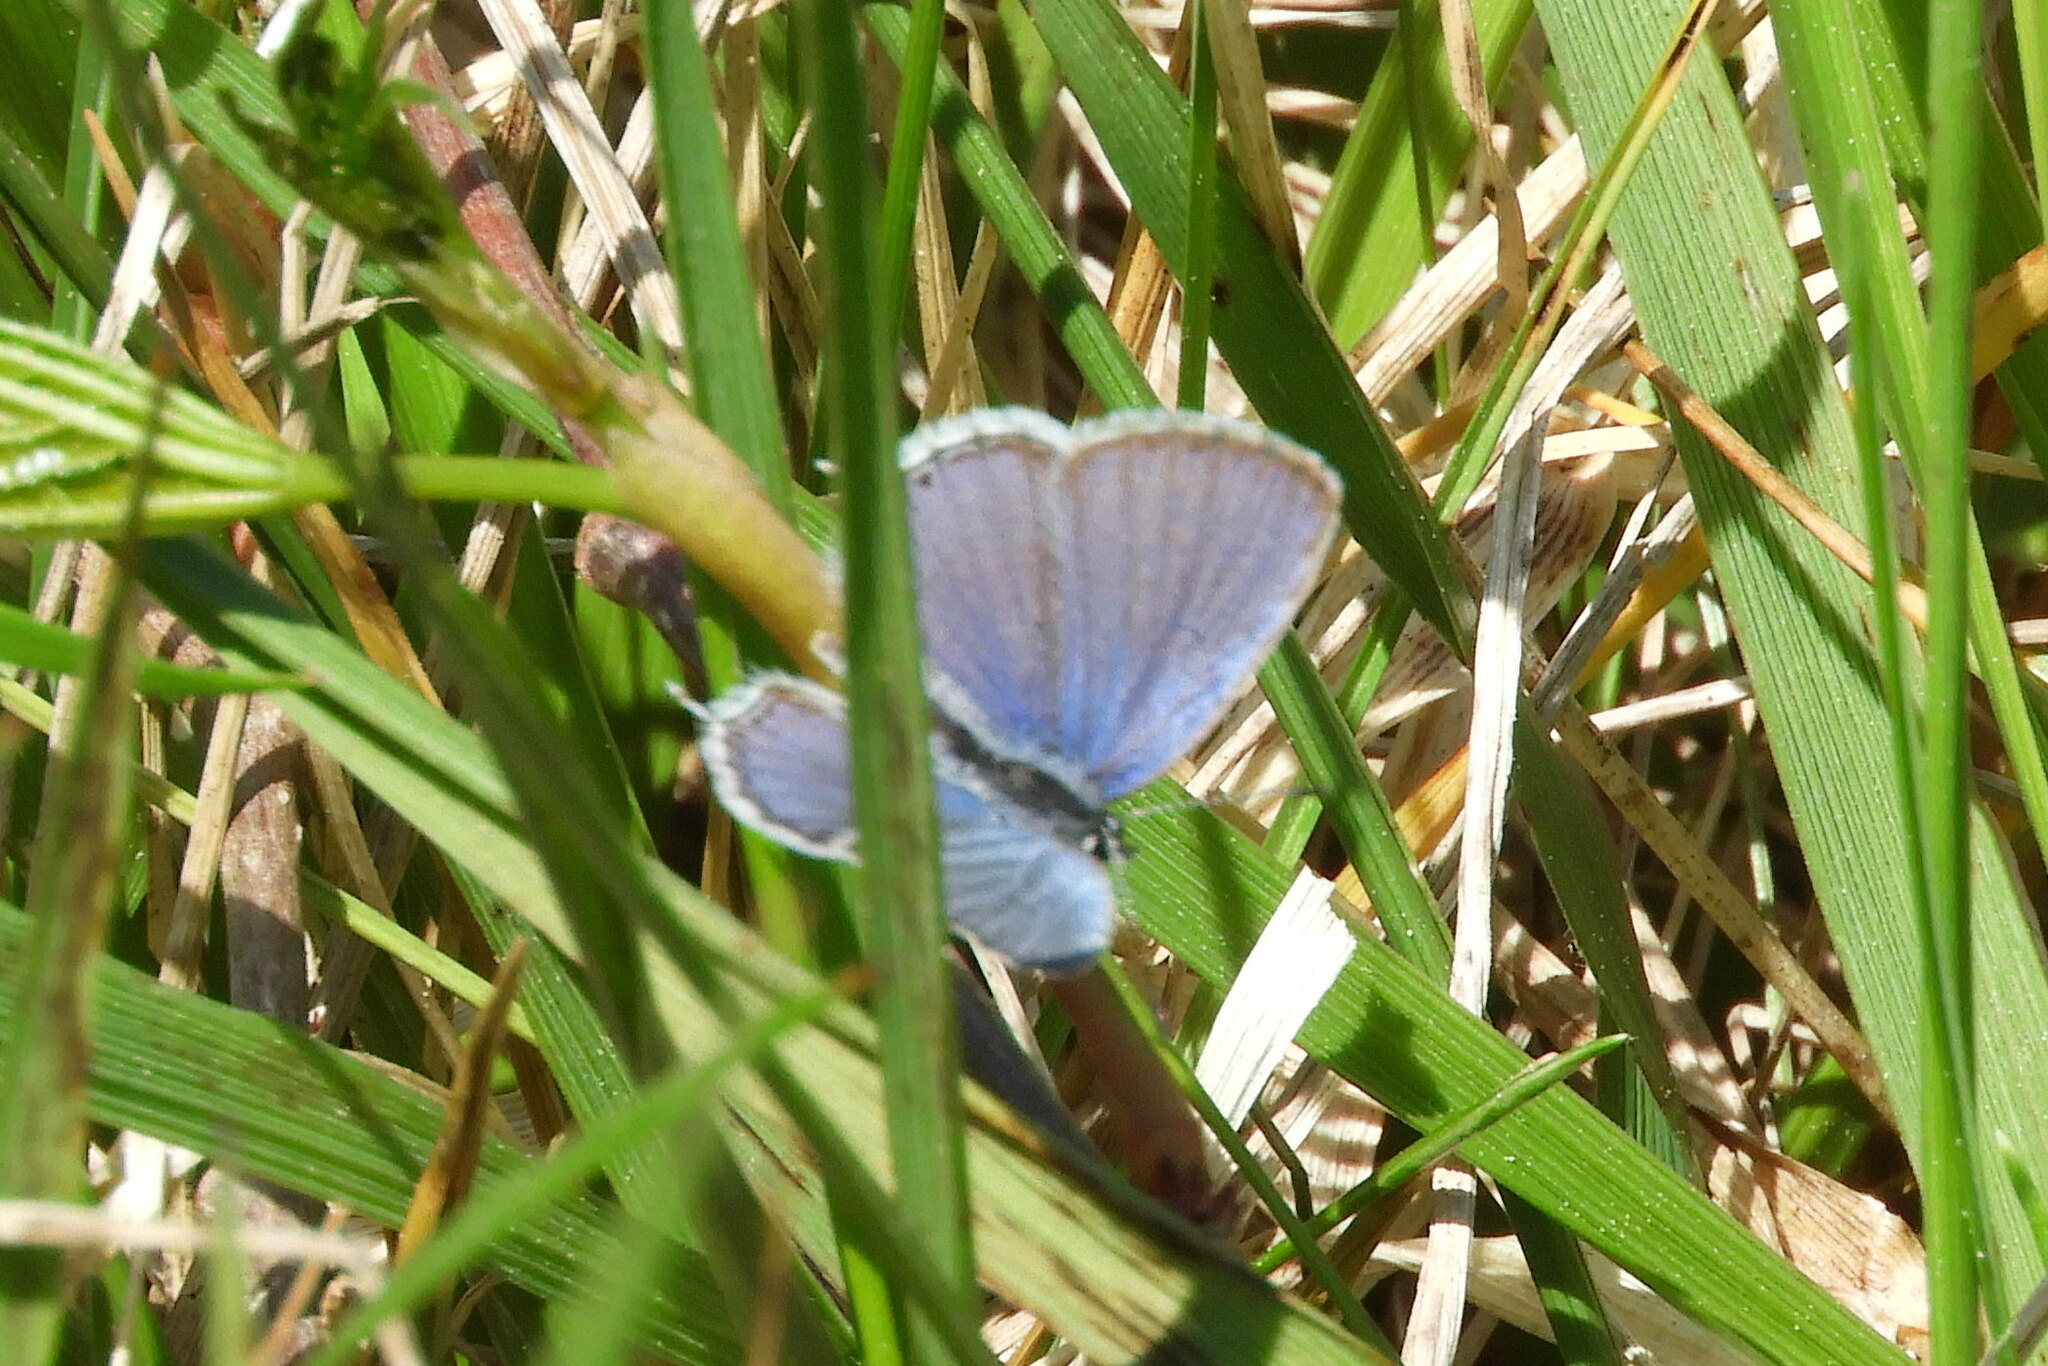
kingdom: Animalia
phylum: Arthropoda
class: Insecta
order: Lepidoptera
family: Lycaenidae
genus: Elkalyce
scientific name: Elkalyce comyntas
